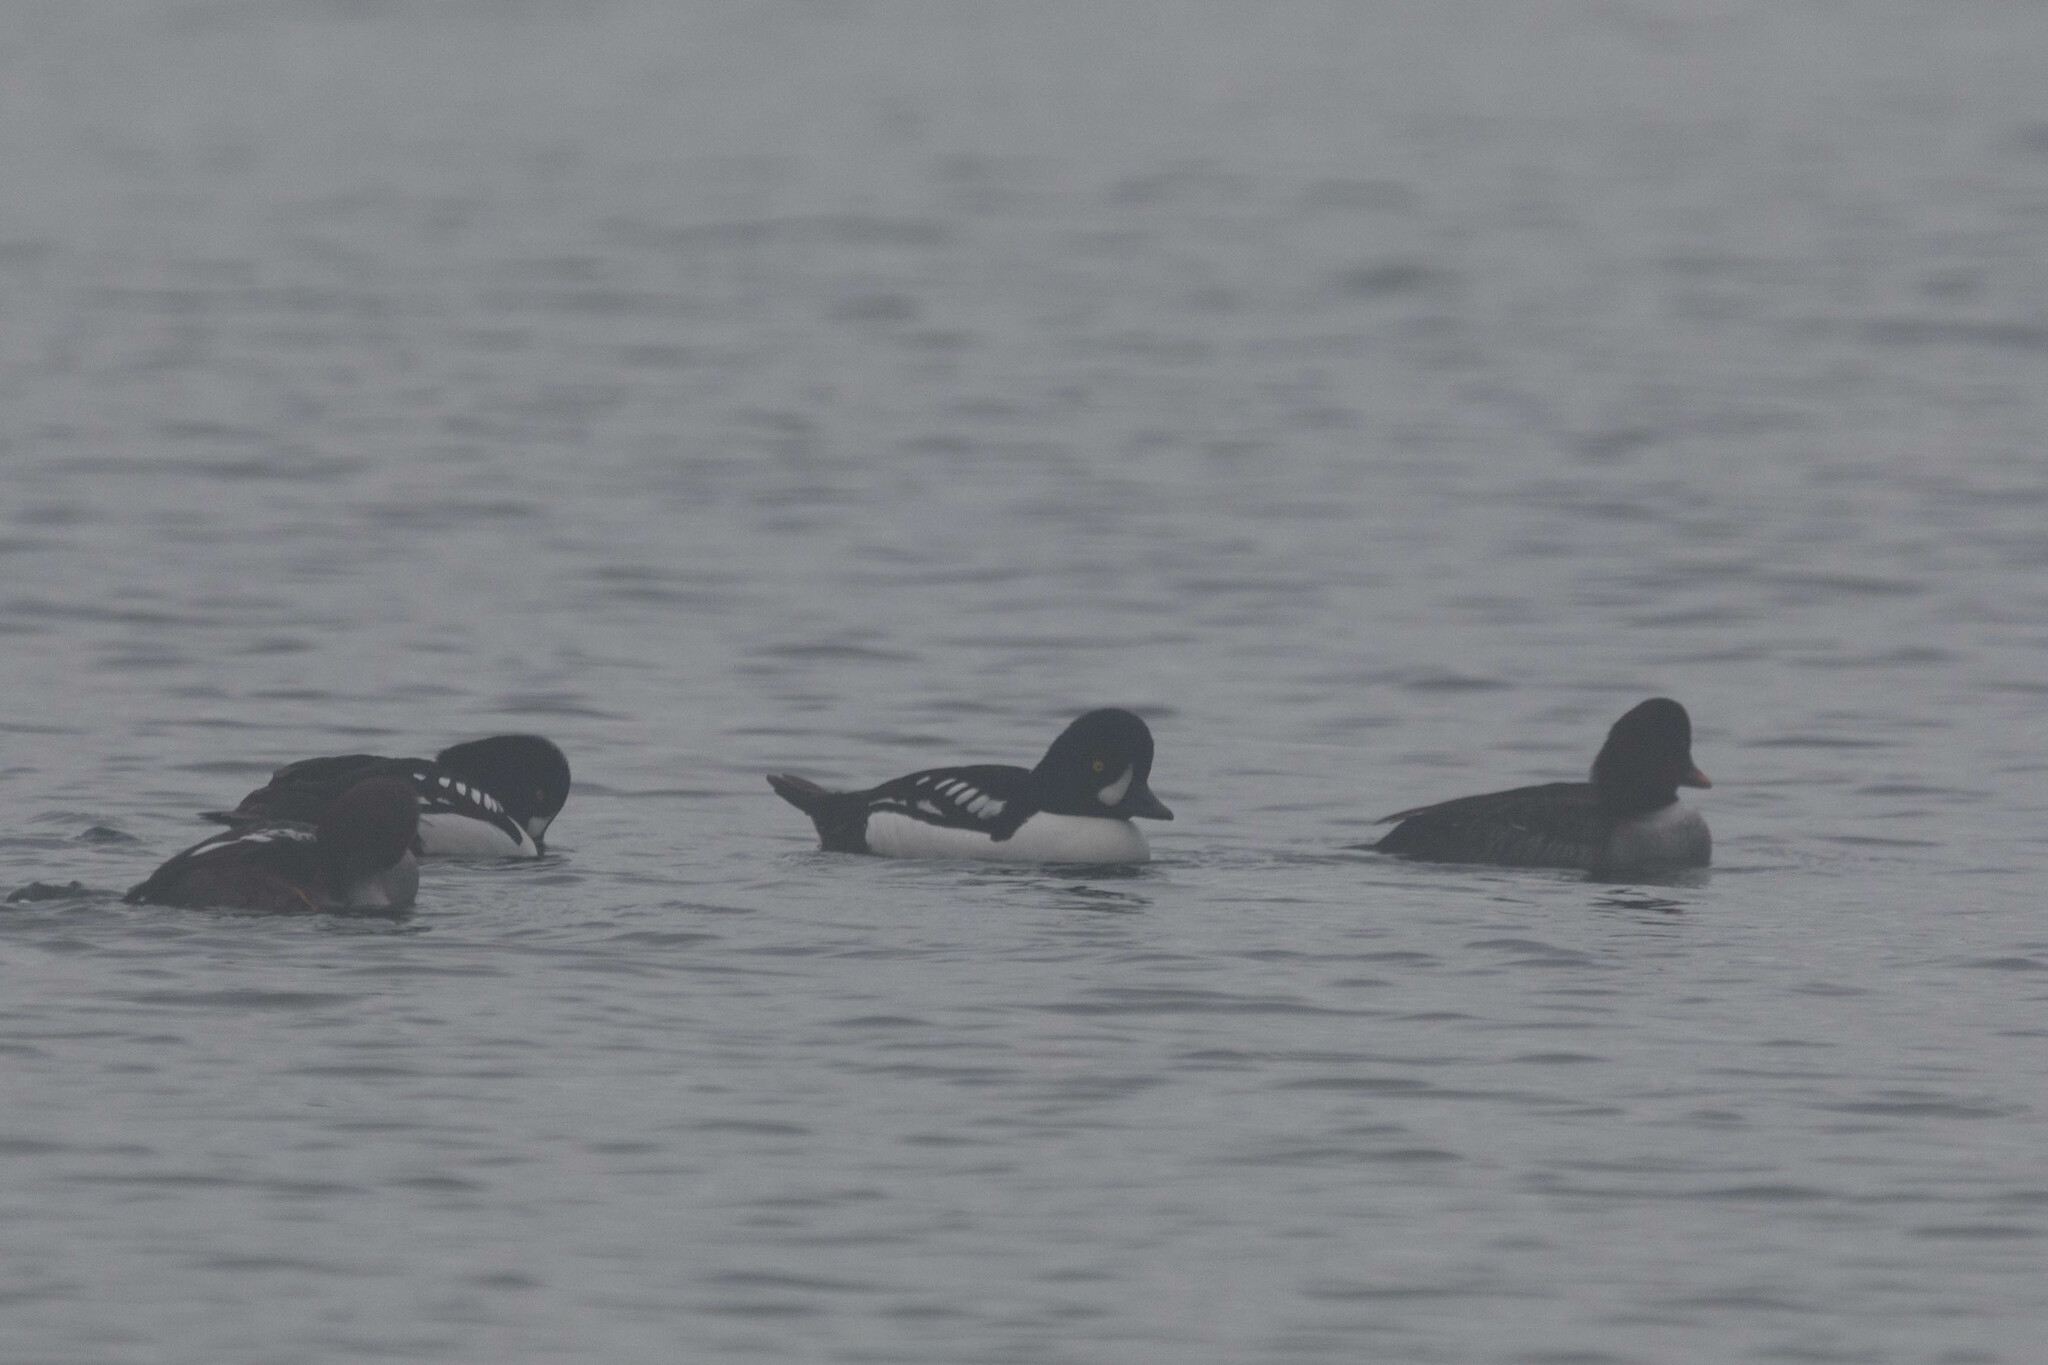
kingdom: Animalia
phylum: Chordata
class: Aves
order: Anseriformes
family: Anatidae
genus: Bucephala
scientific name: Bucephala islandica
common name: Barrow's goldeneye
